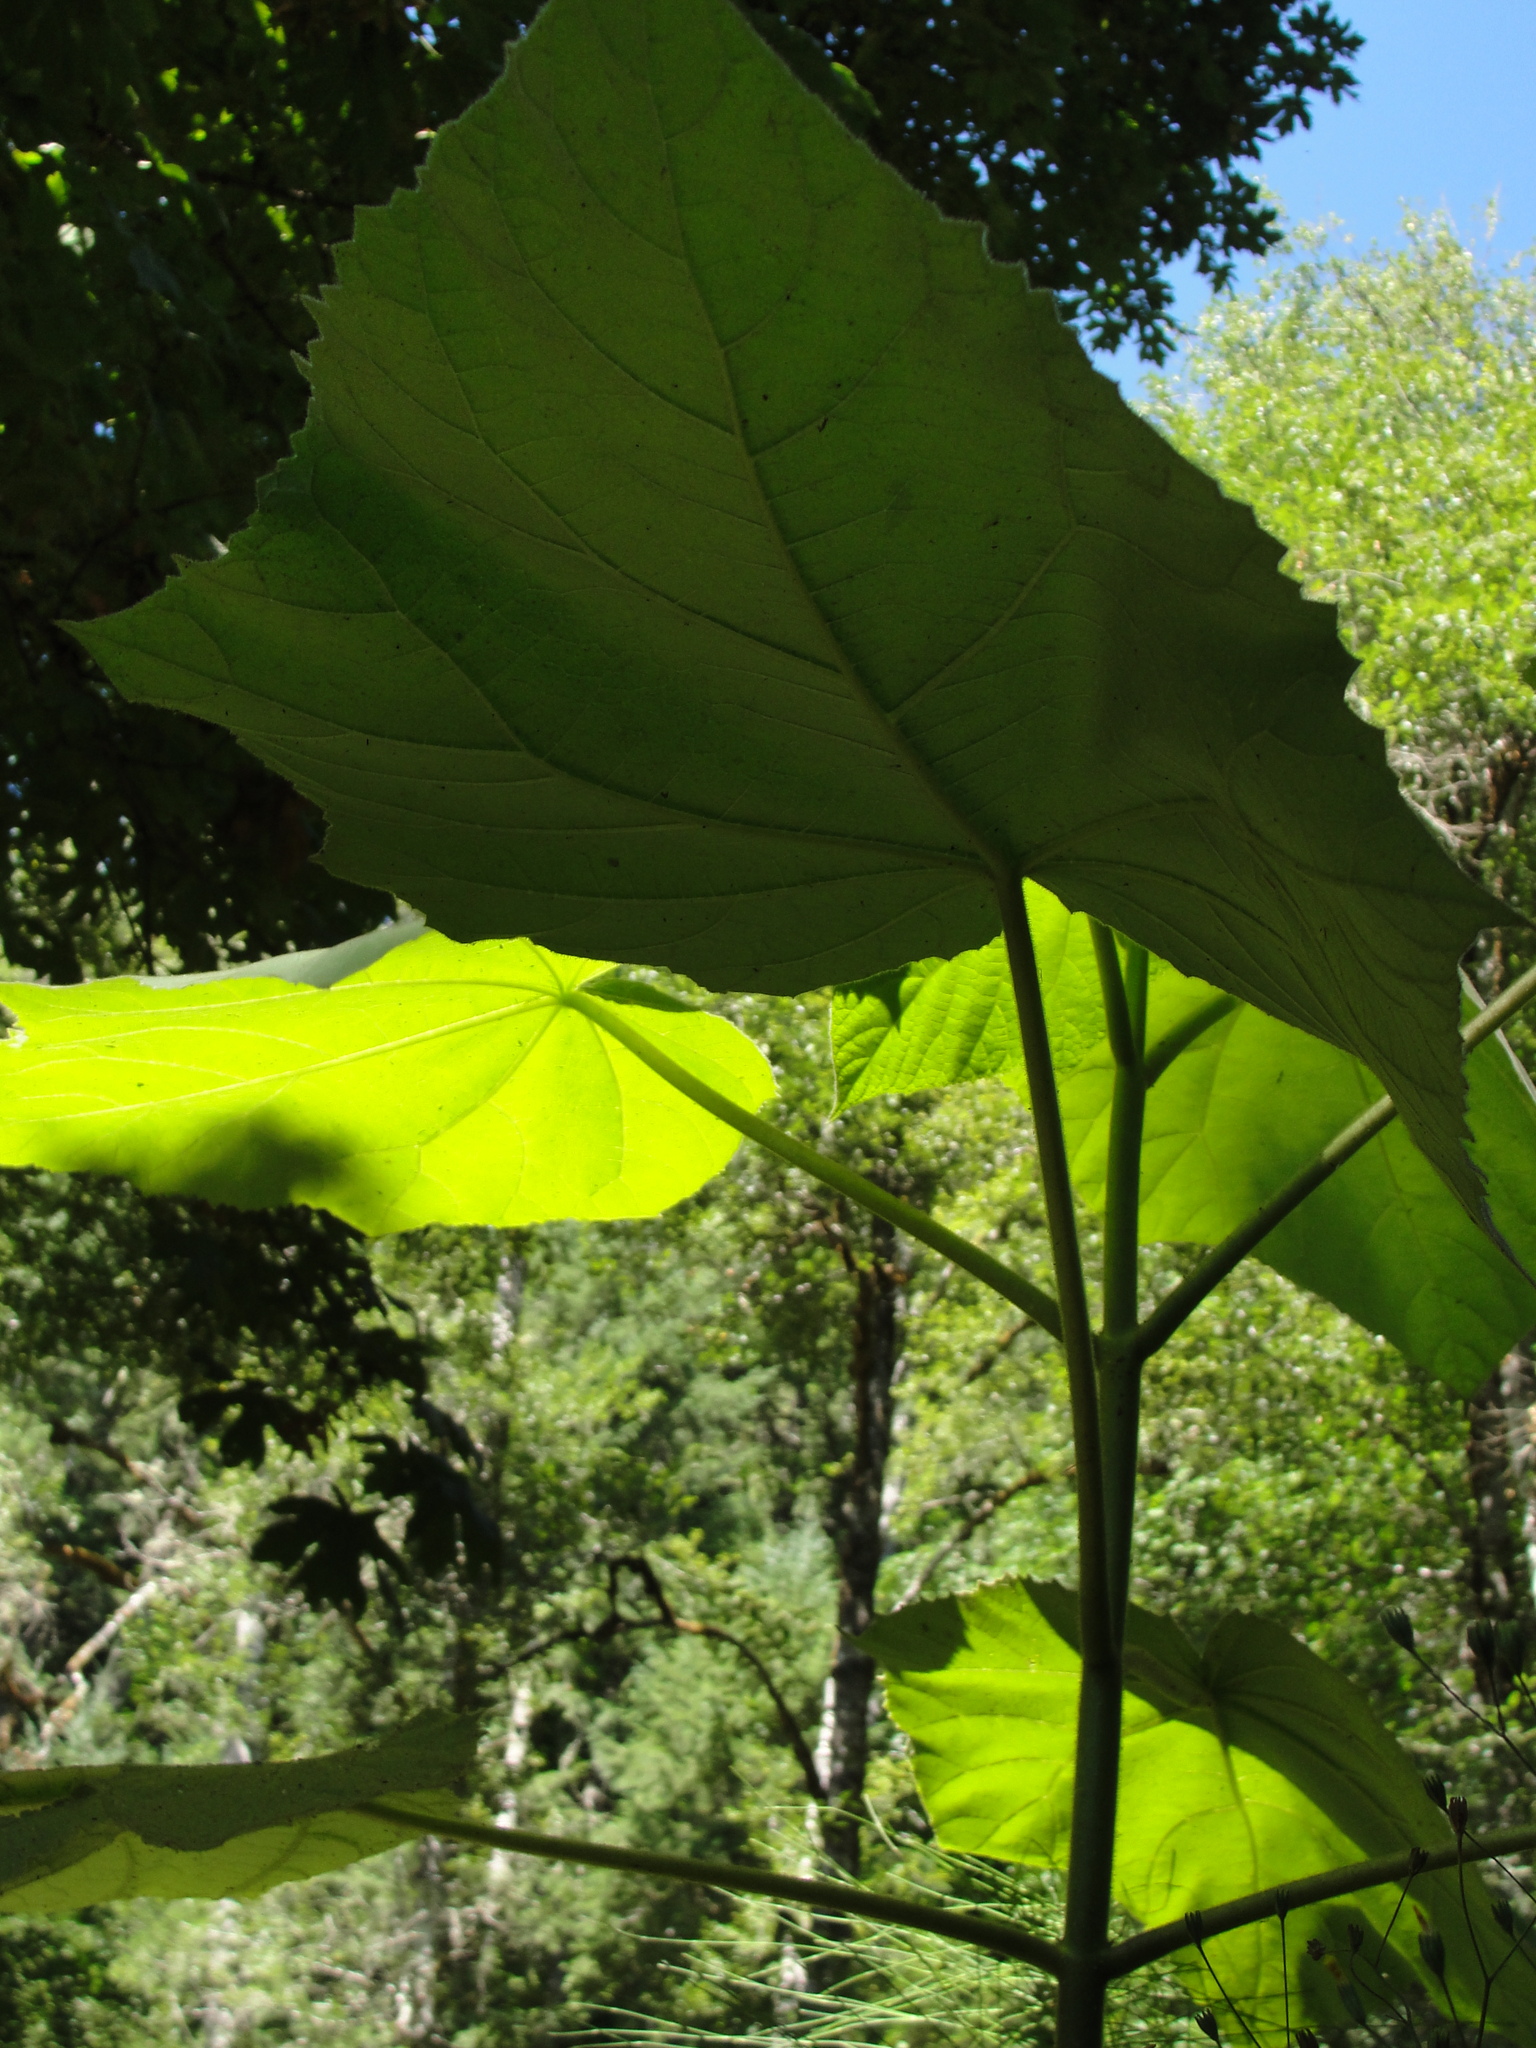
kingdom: Plantae
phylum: Tracheophyta
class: Magnoliopsida
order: Lamiales
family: Paulowniaceae
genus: Paulownia
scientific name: Paulownia tomentosa
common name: Foxglove-tree
